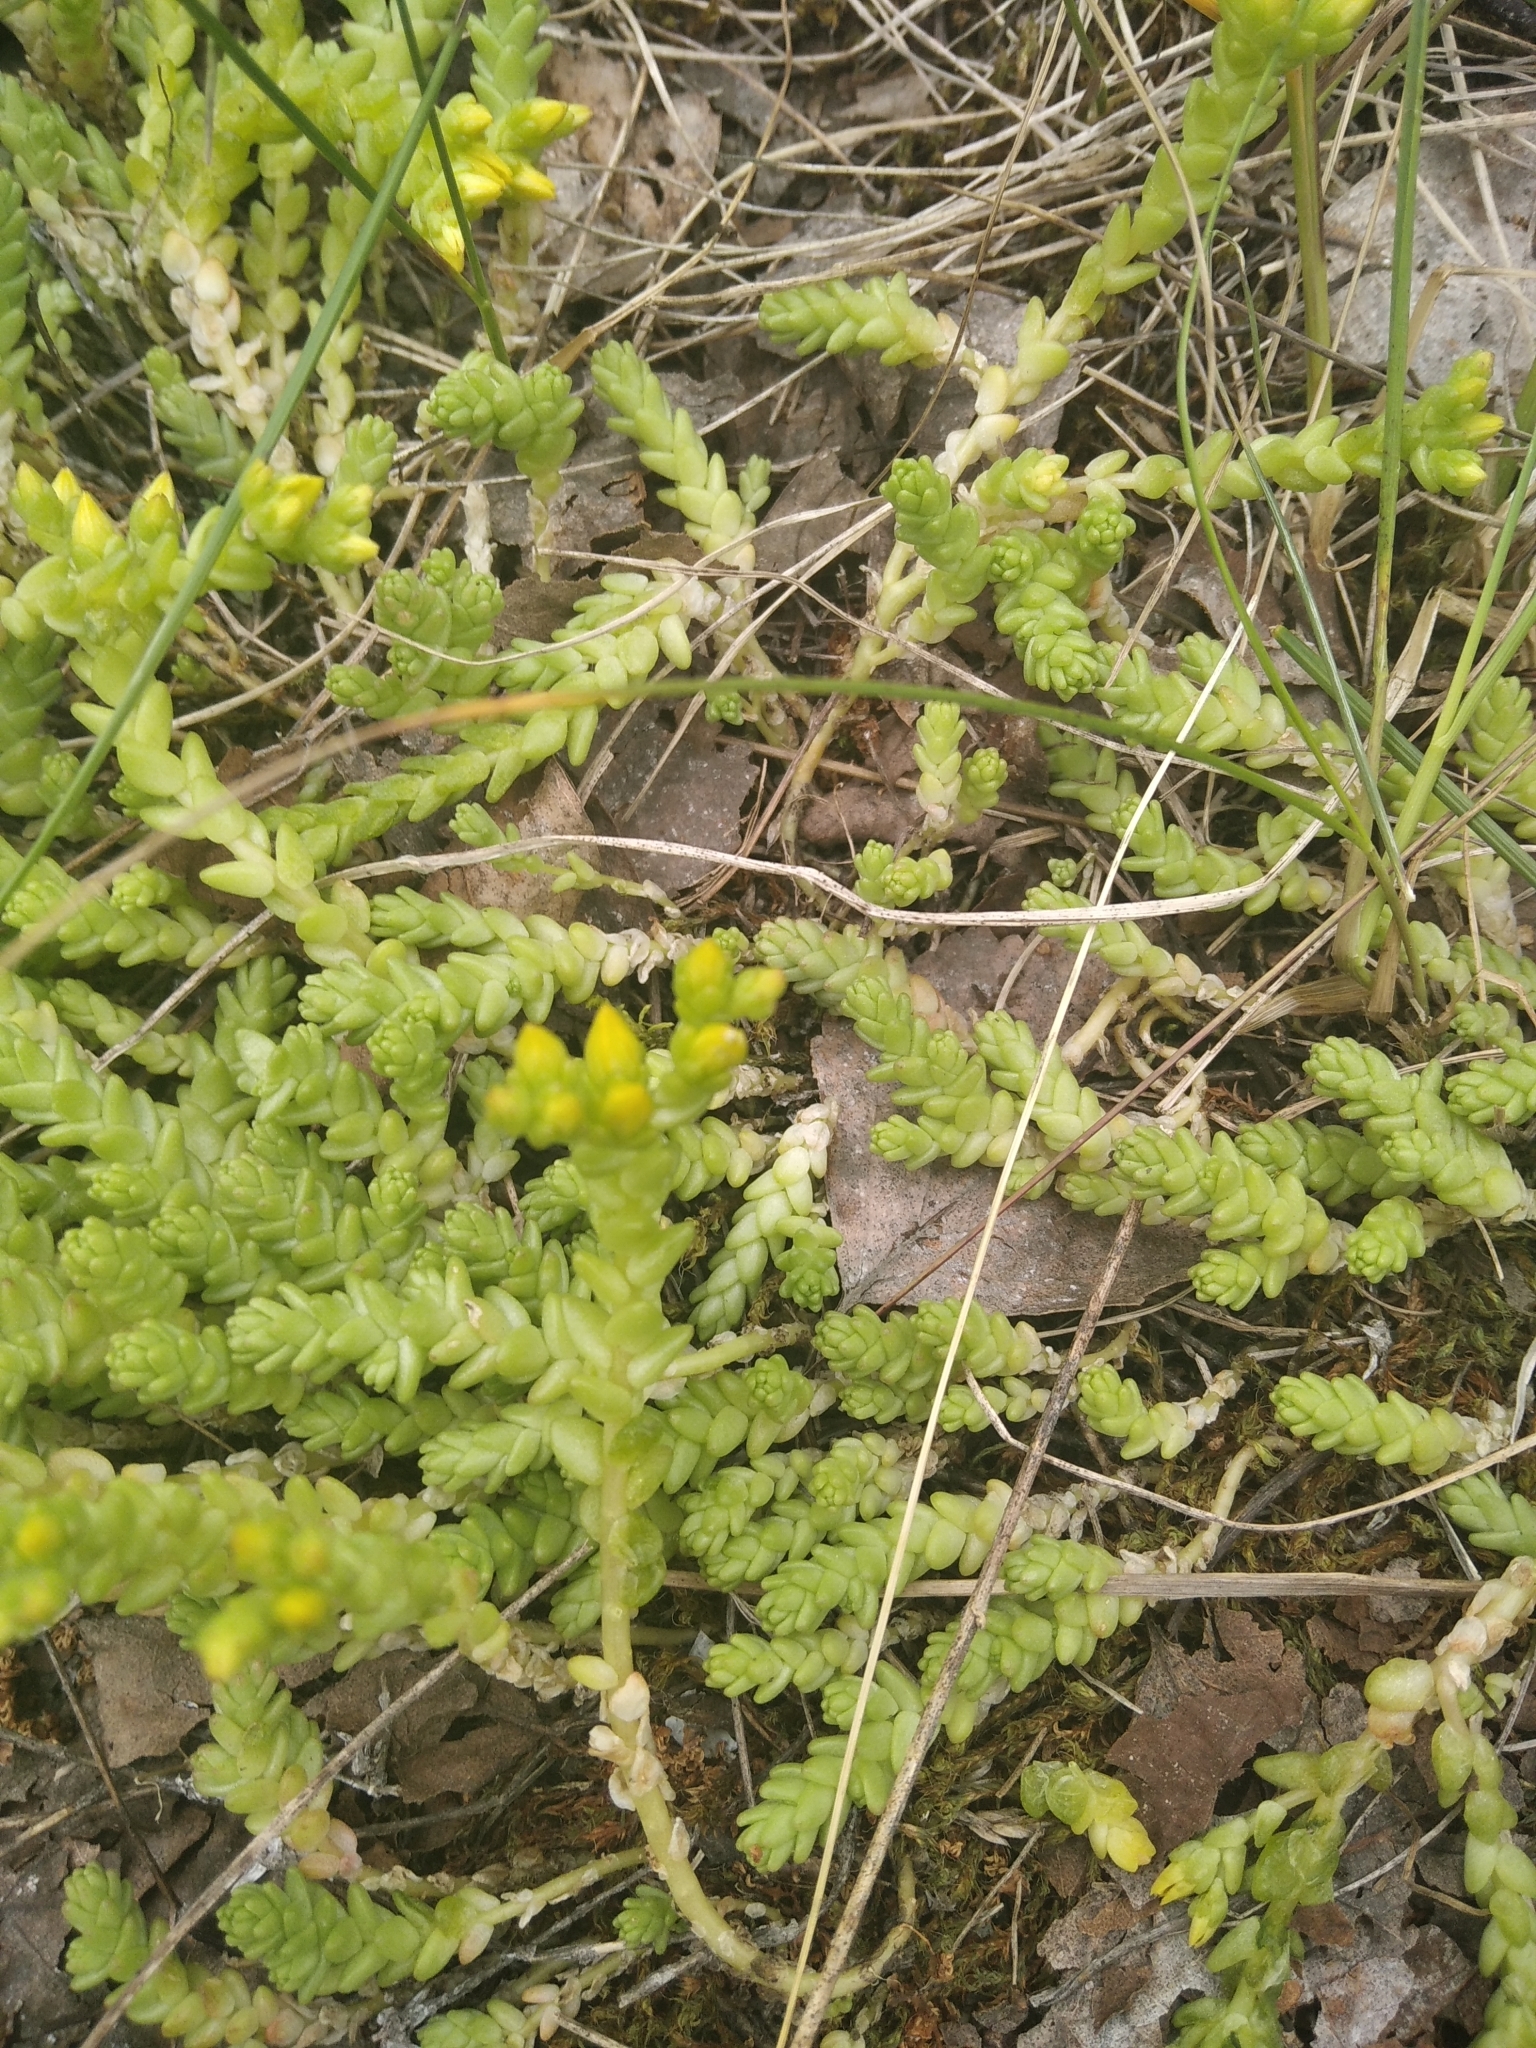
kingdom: Plantae
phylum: Tracheophyta
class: Magnoliopsida
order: Saxifragales
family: Crassulaceae
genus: Sedum
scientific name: Sedum acre
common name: Biting stonecrop
